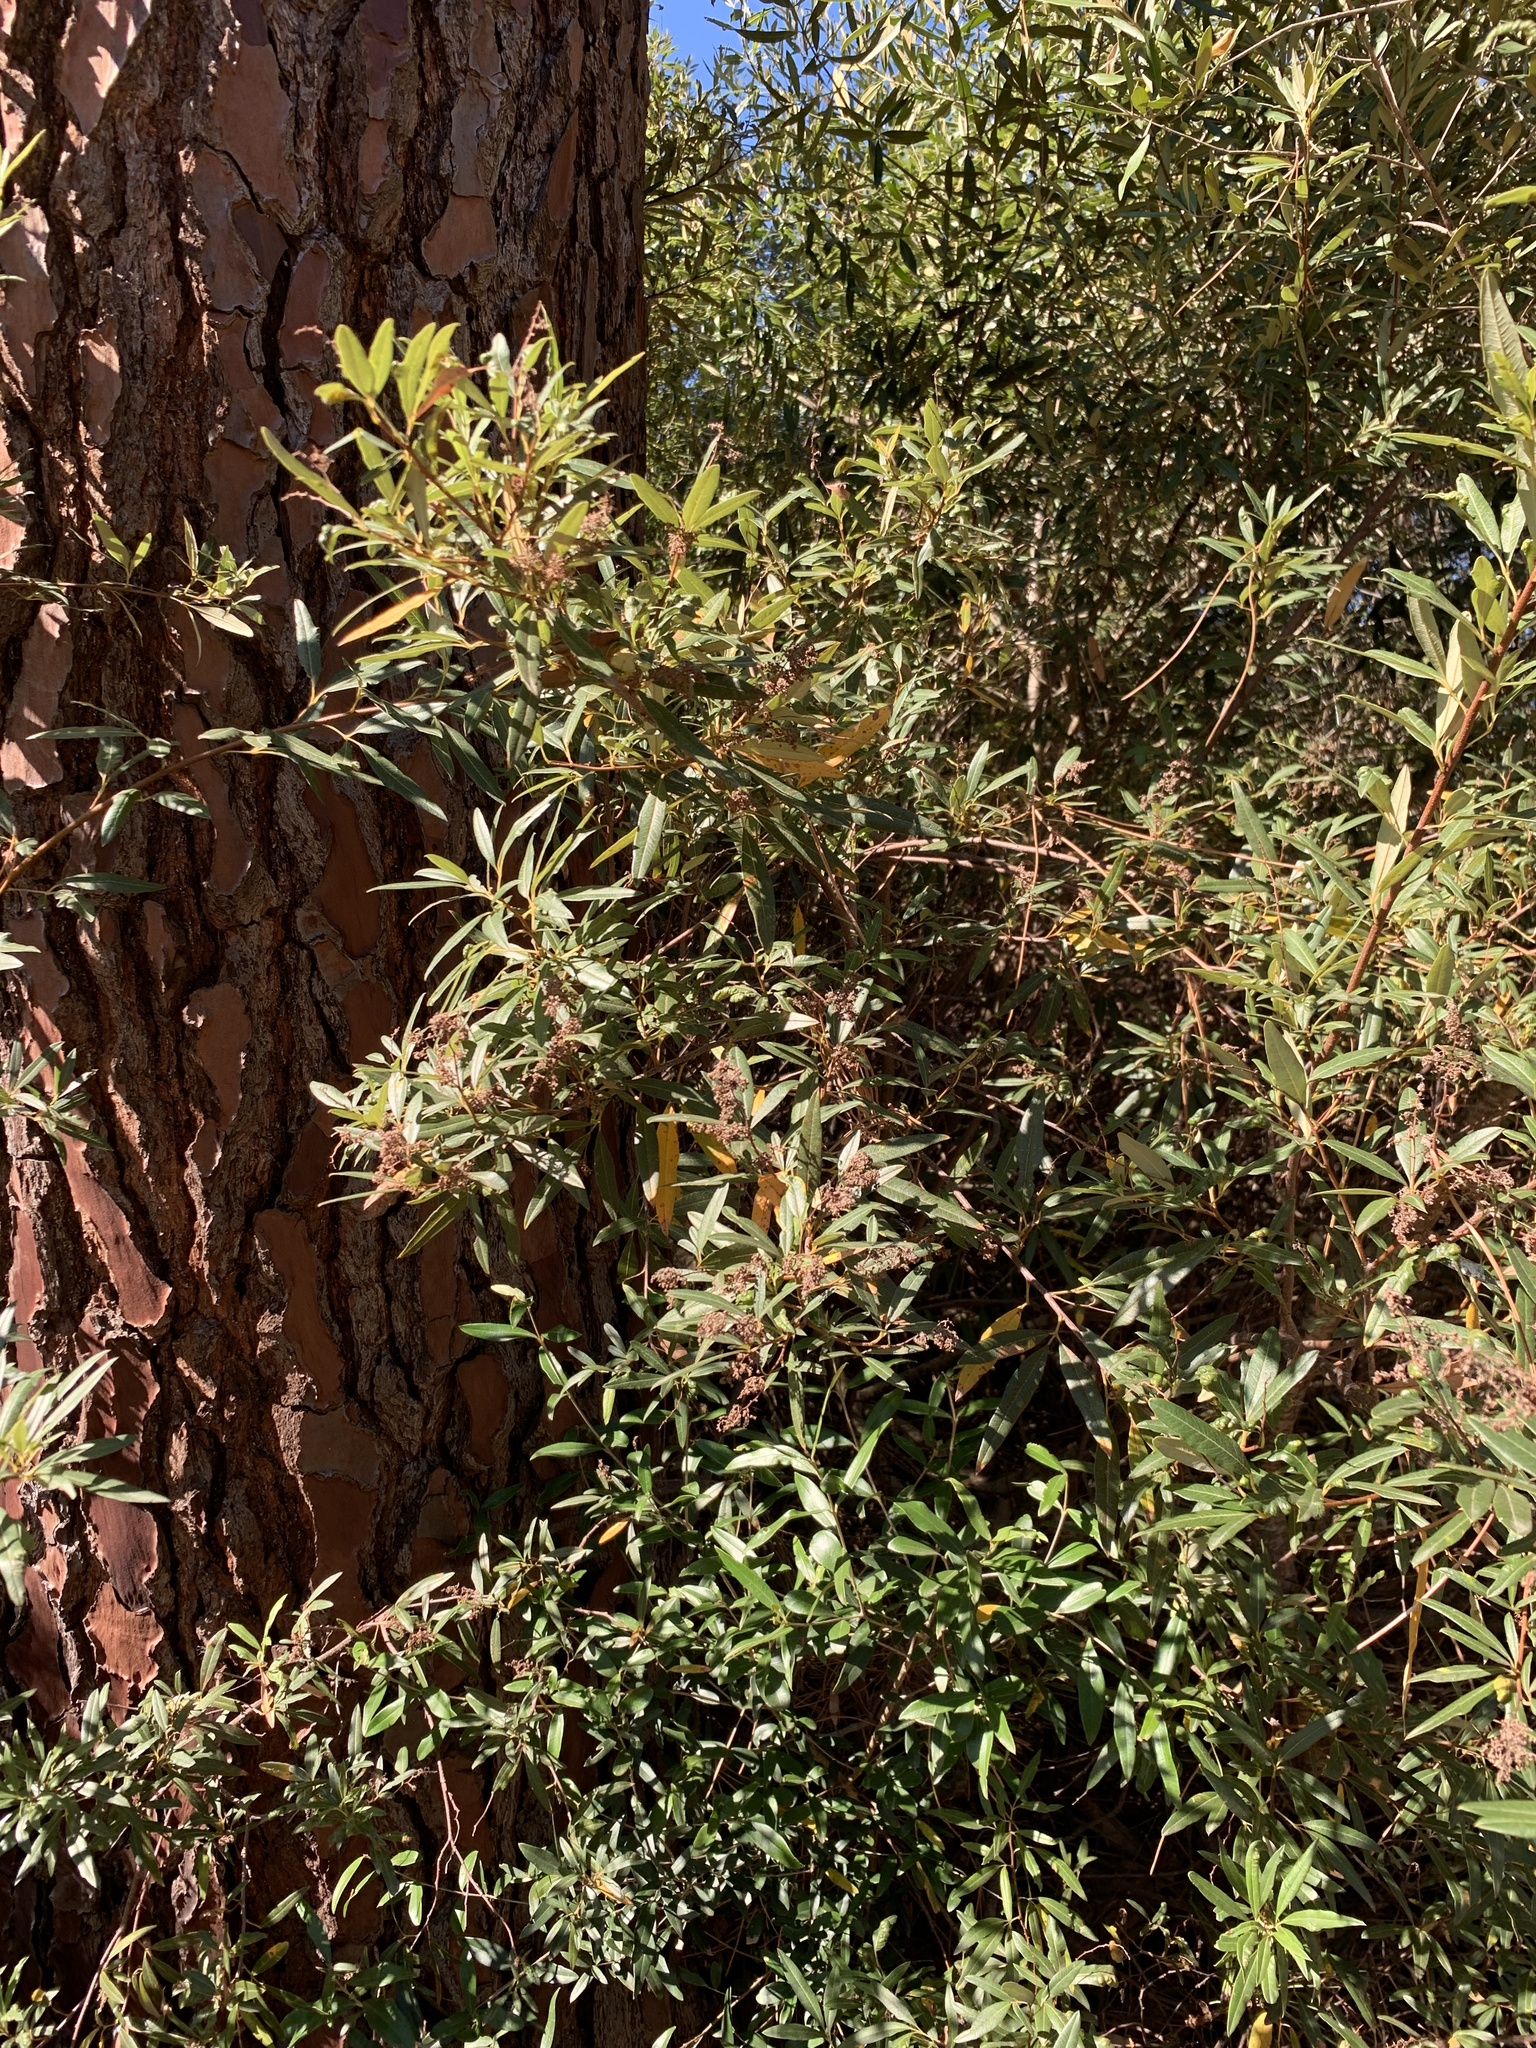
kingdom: Plantae
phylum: Tracheophyta
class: Magnoliopsida
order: Sapindales
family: Anacardiaceae
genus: Searsia
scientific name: Searsia angustifolia
